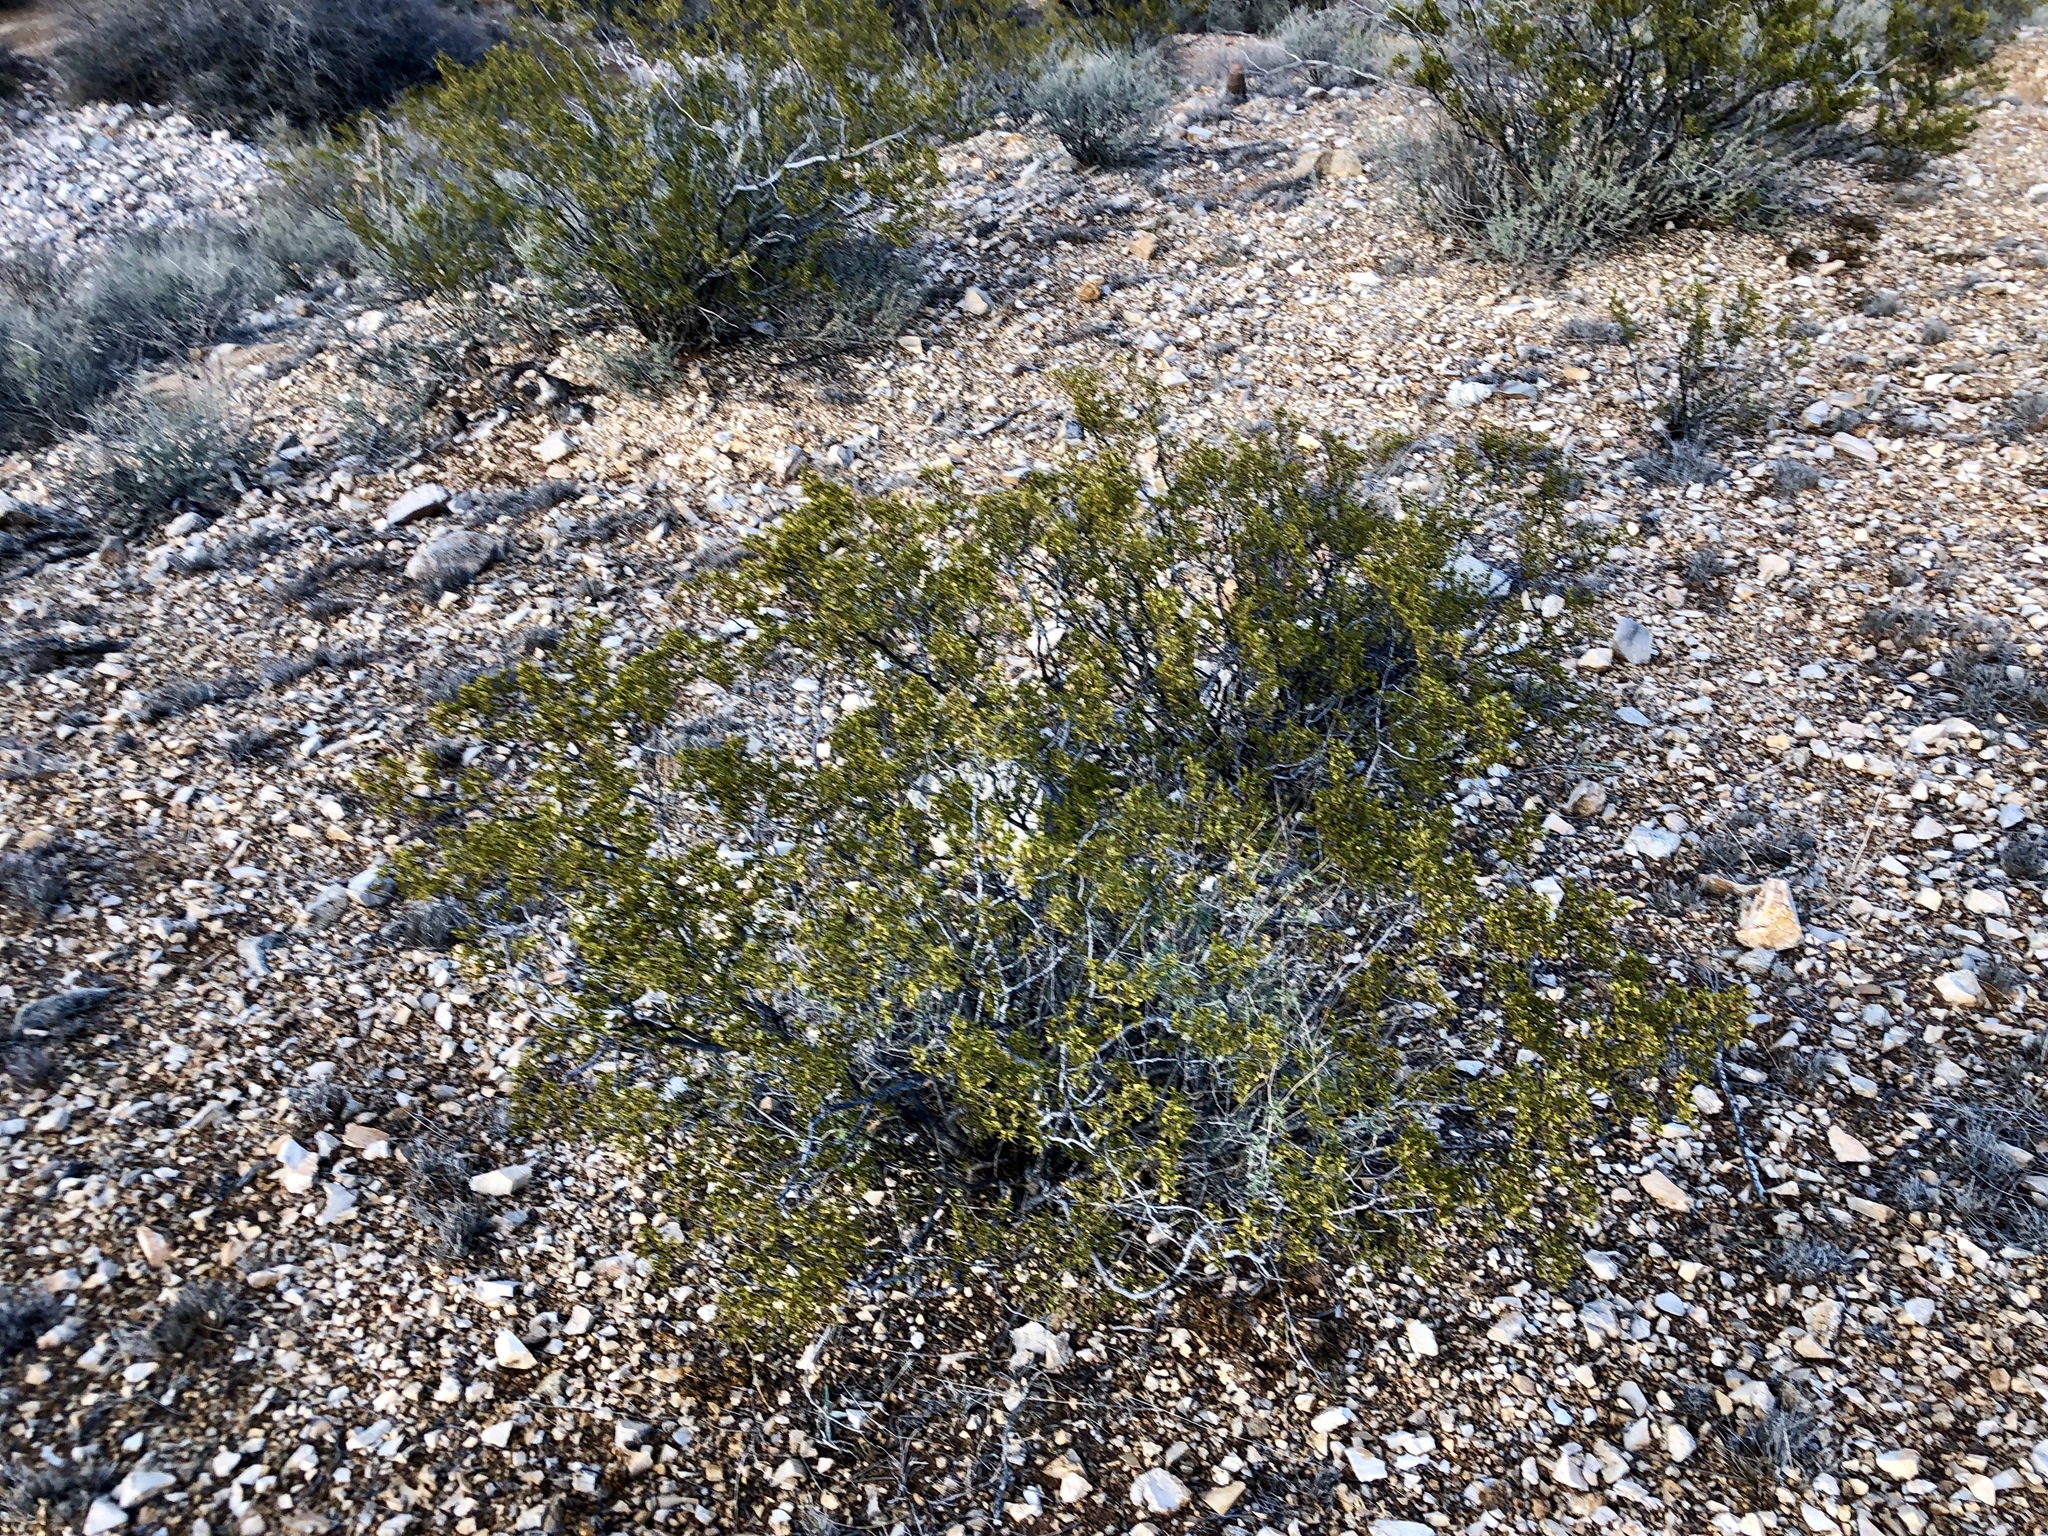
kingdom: Plantae
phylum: Tracheophyta
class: Magnoliopsida
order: Zygophyllales
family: Zygophyllaceae
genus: Larrea
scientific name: Larrea tridentata
